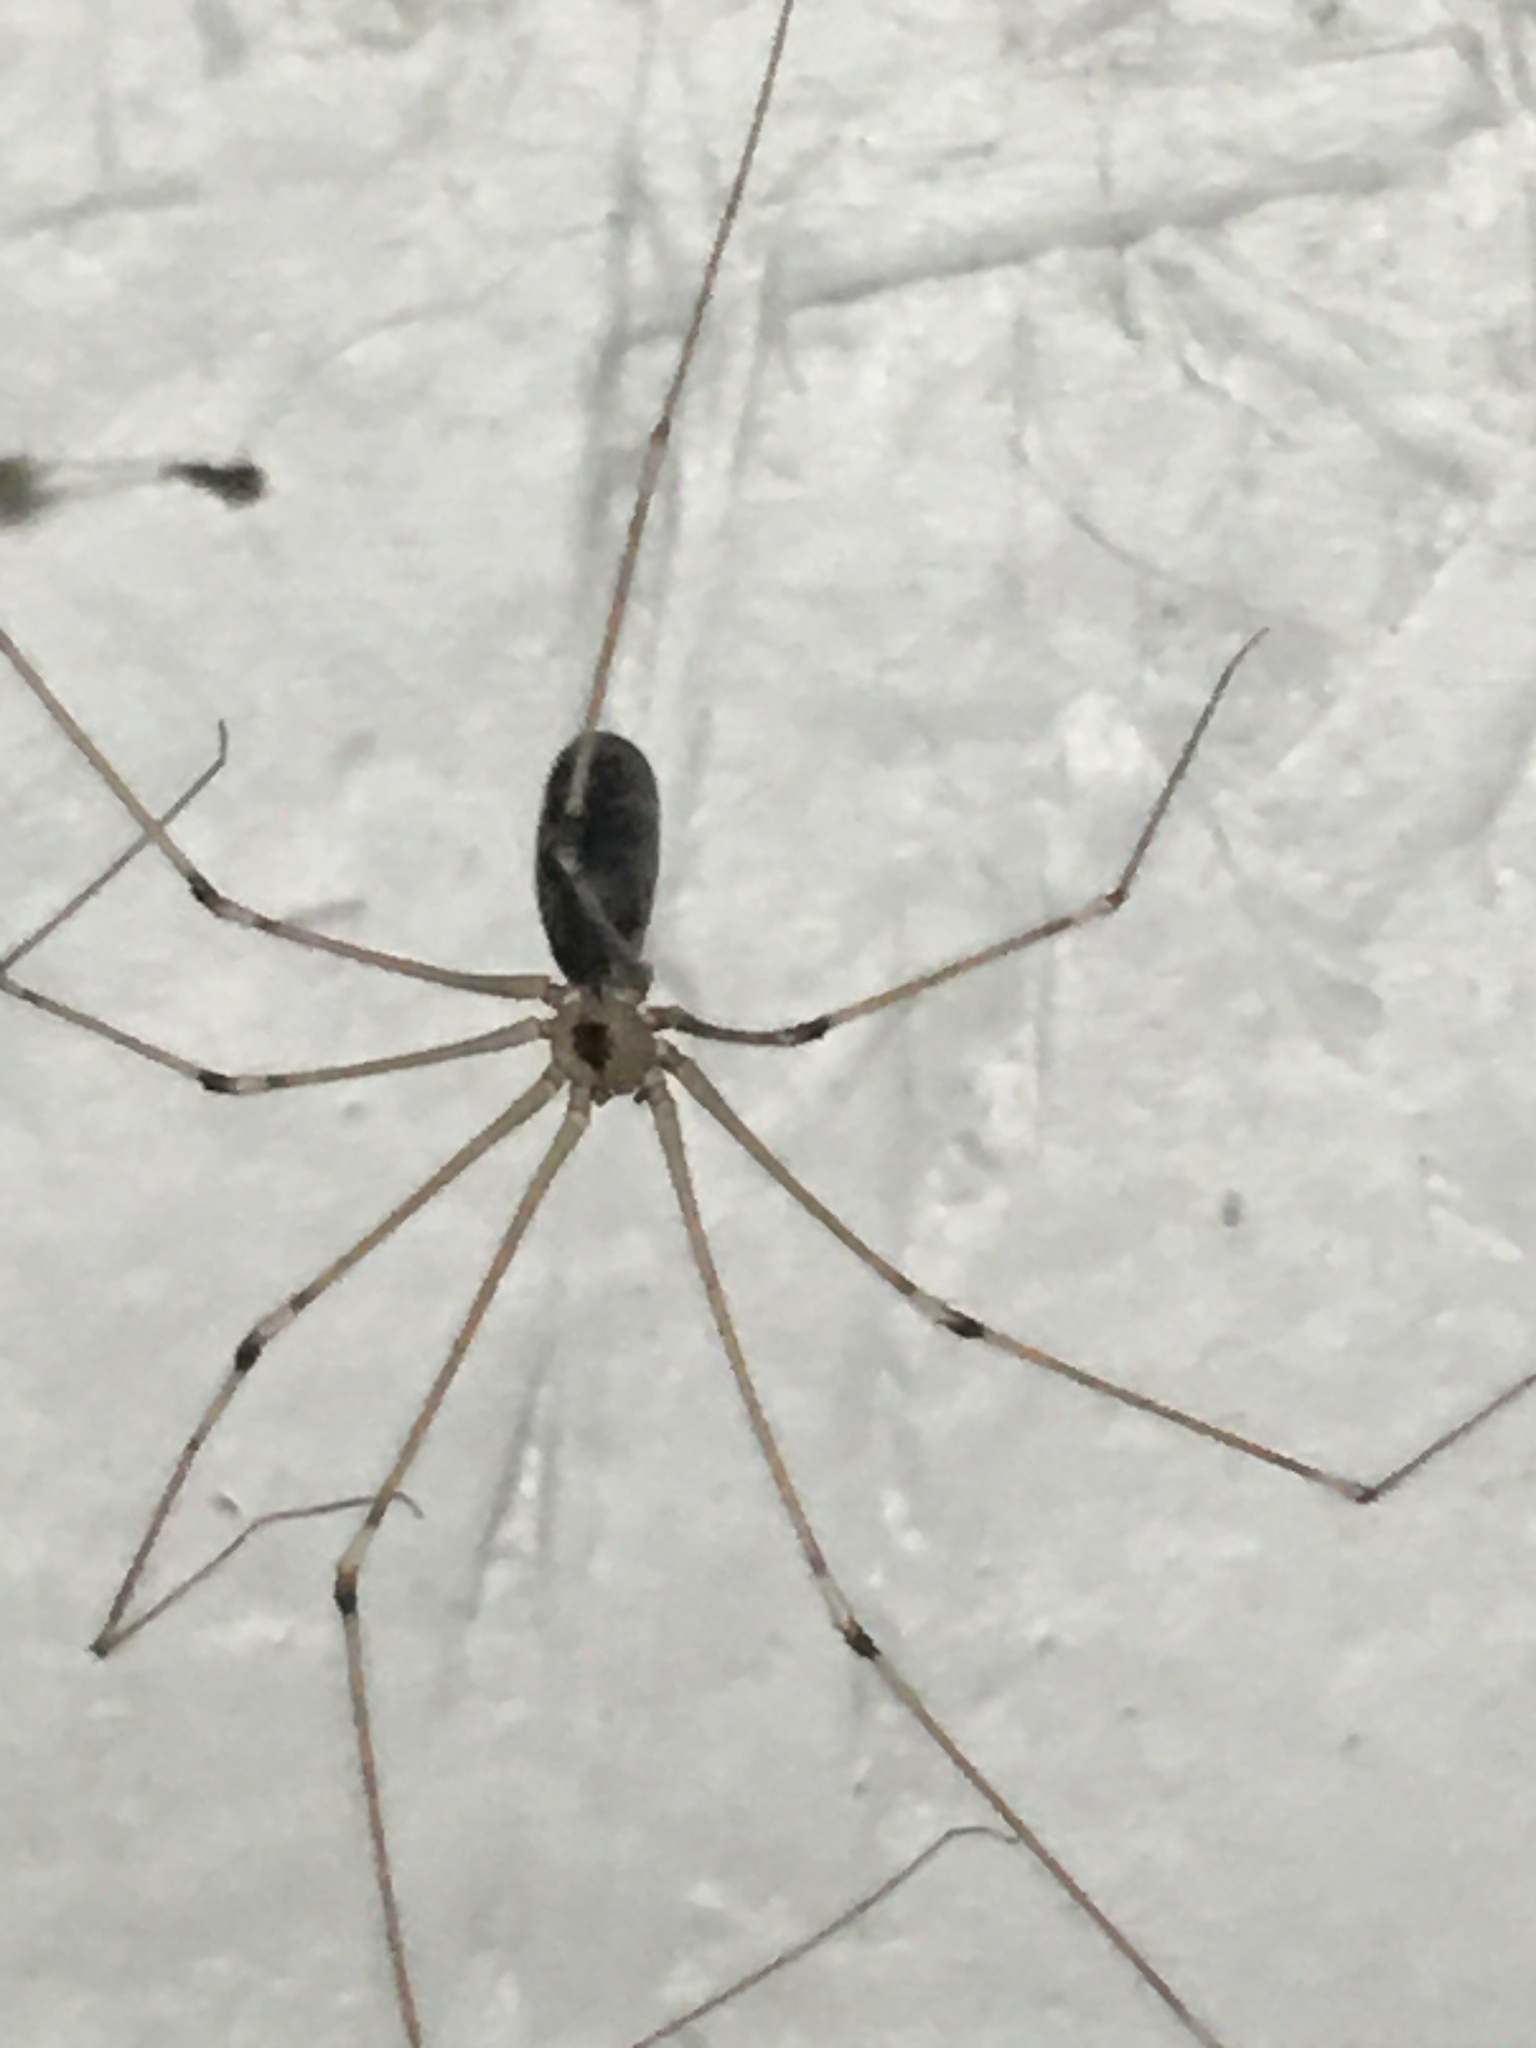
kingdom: Animalia
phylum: Arthropoda
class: Arachnida
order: Araneae
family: Pholcidae
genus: Pholcus
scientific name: Pholcus phalangioides
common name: Longbodied cellar spider
